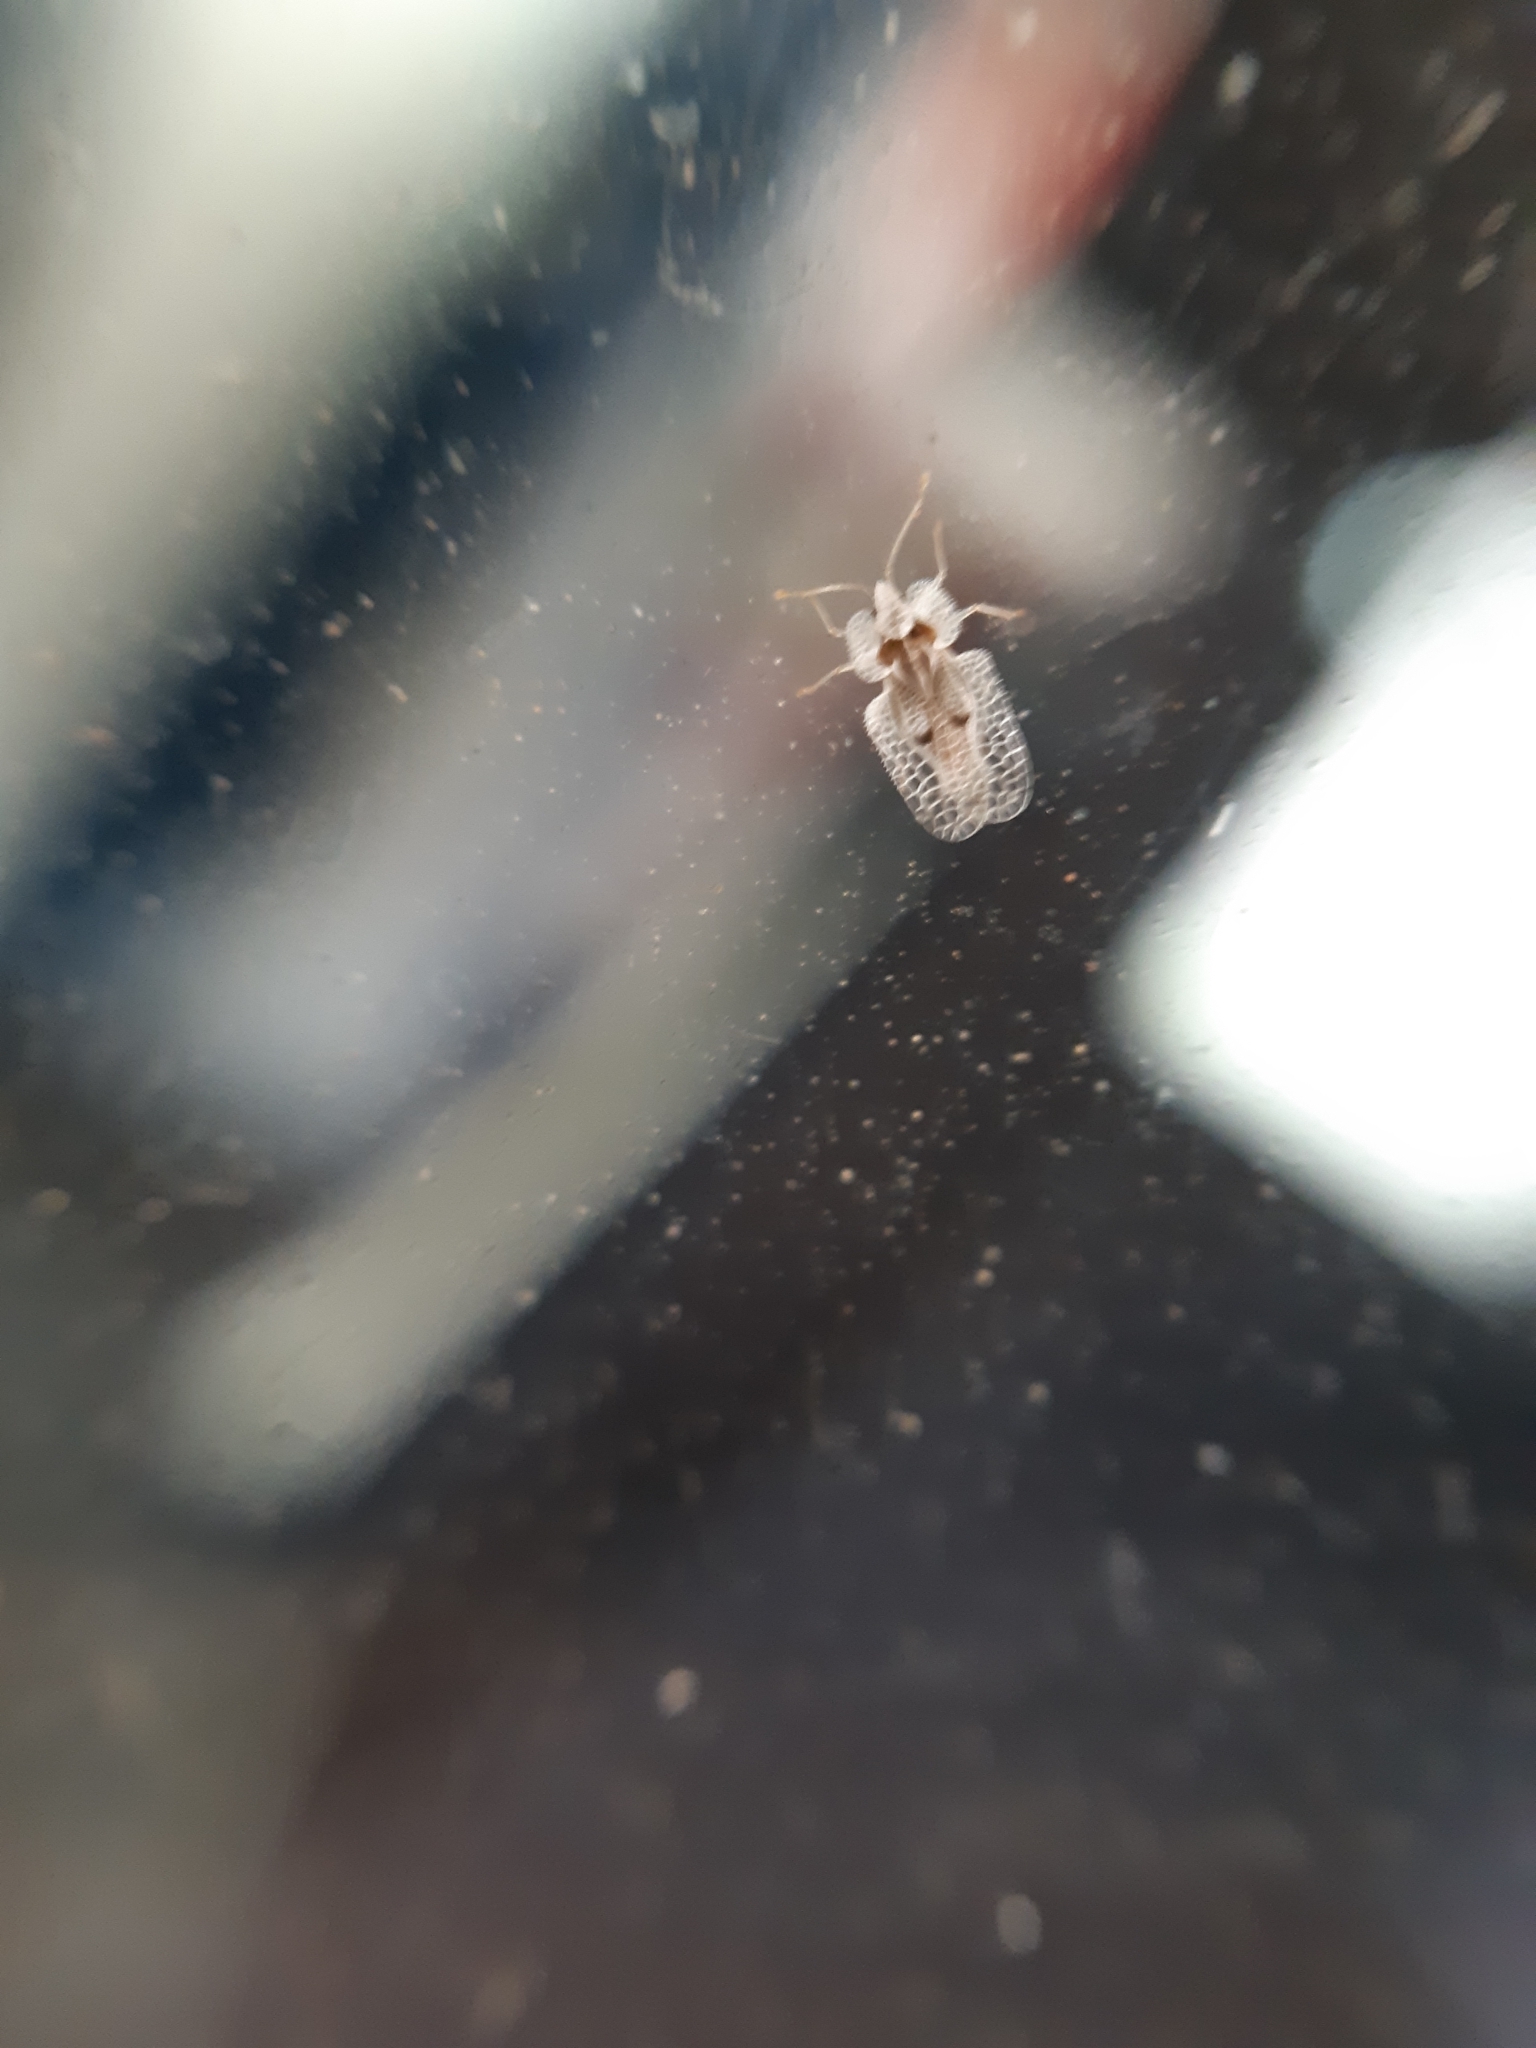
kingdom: Animalia
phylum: Arthropoda
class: Insecta
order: Hemiptera
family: Tingidae
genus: Corythucha
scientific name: Corythucha ciliata
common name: Sycamore lace bug
